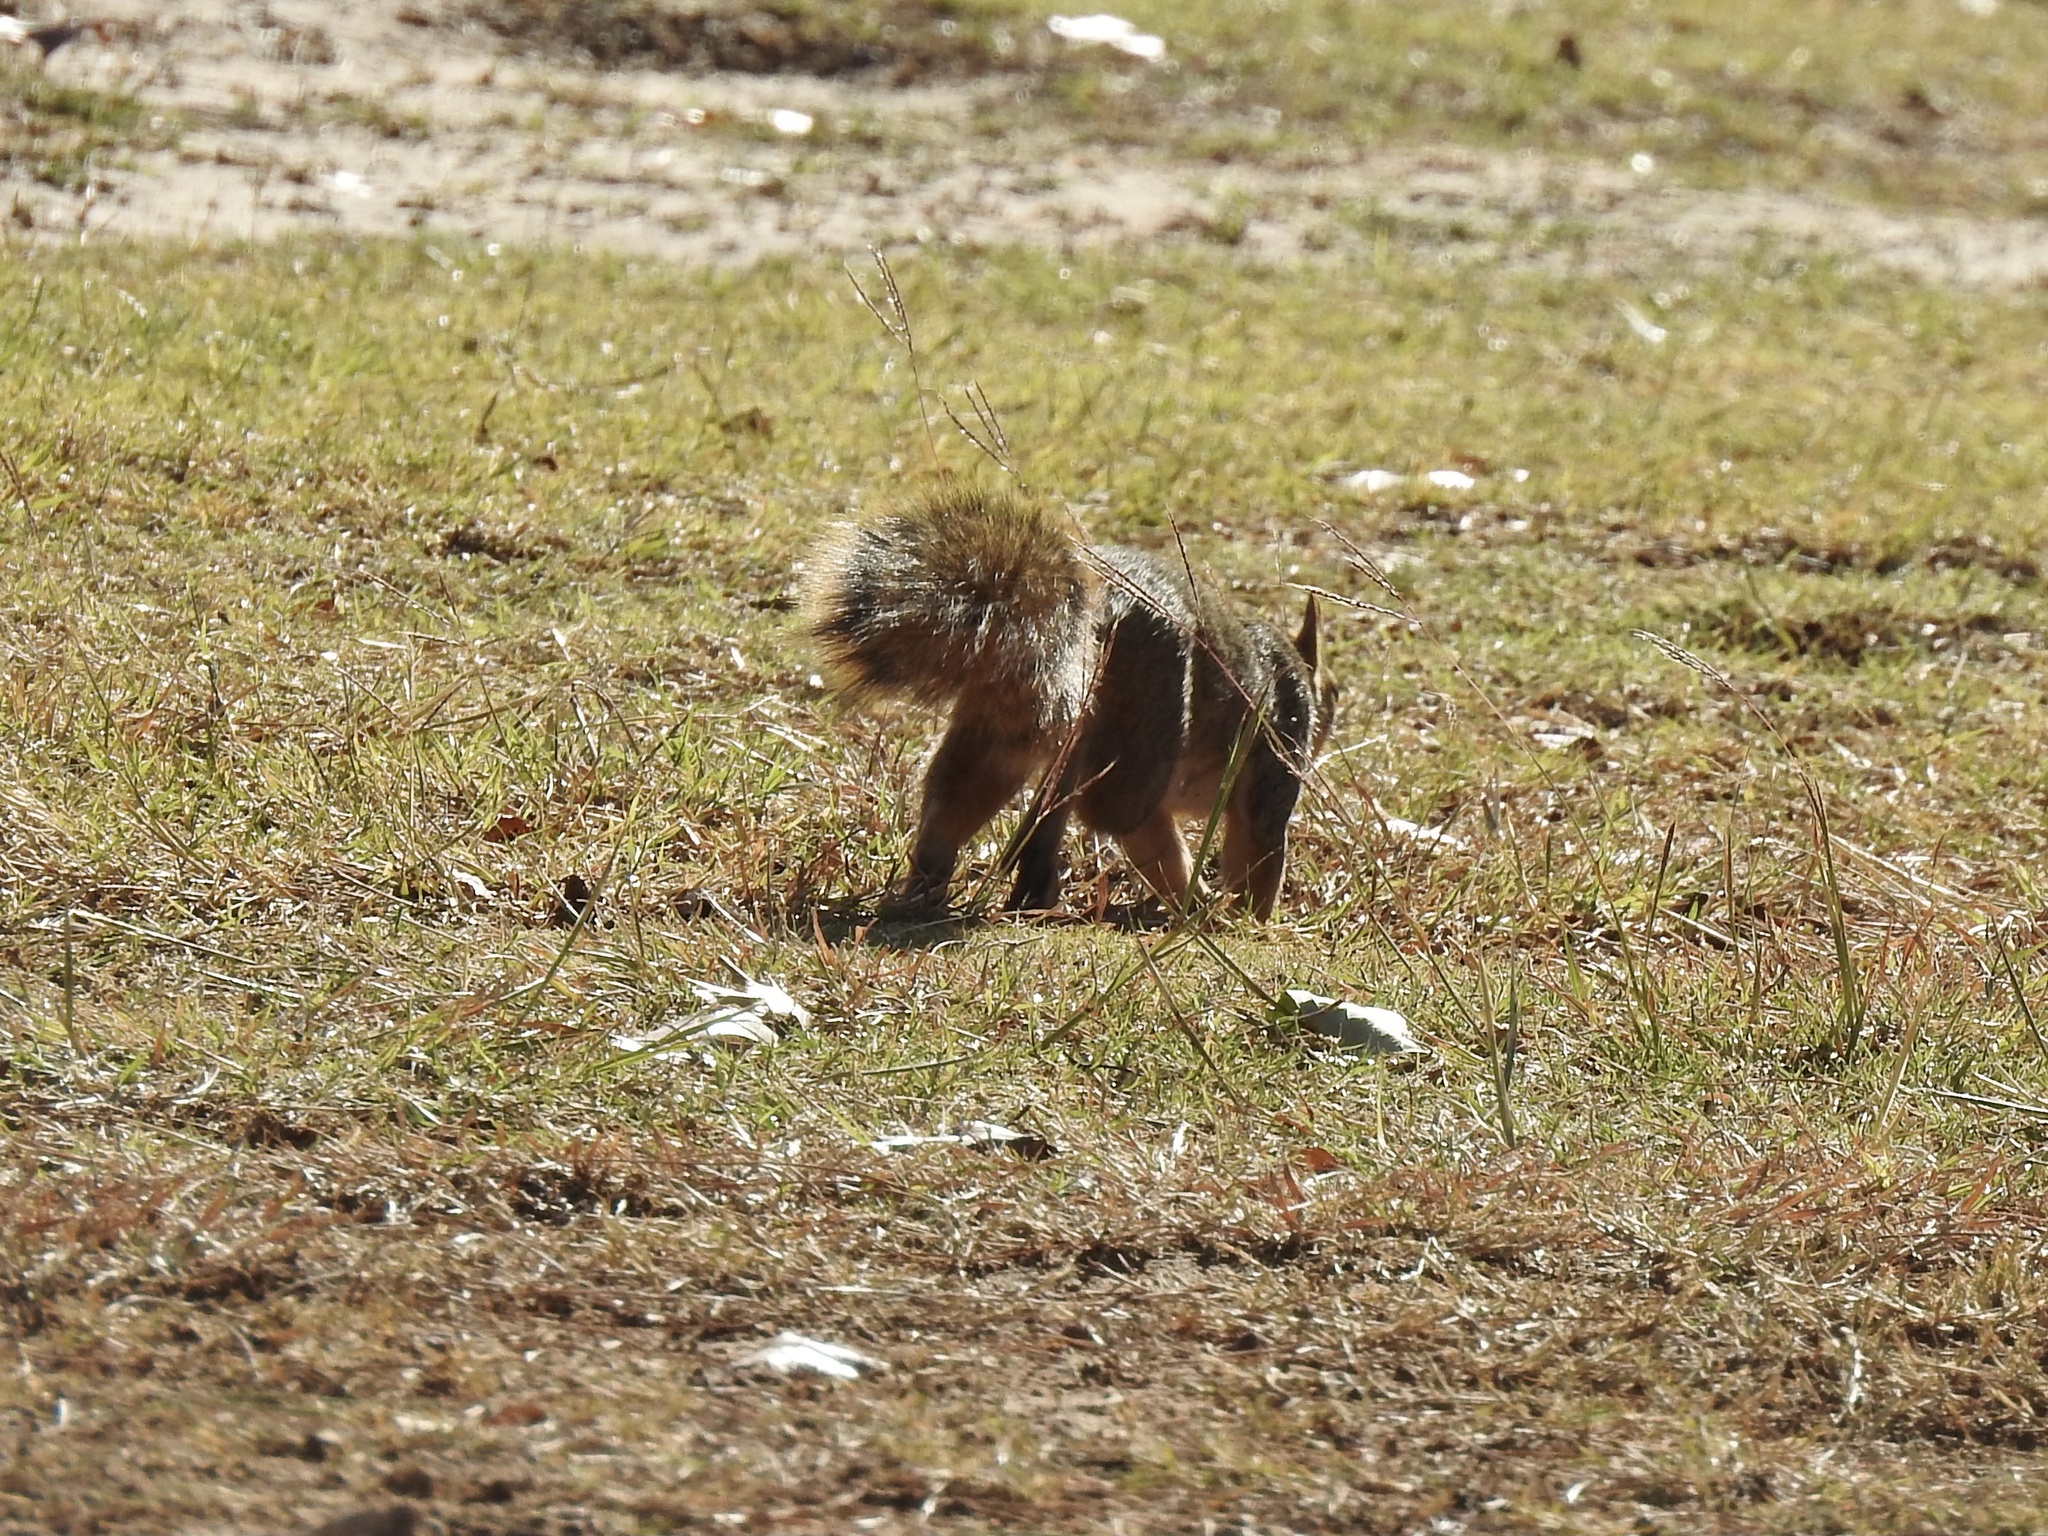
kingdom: Animalia
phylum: Chordata
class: Mammalia
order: Rodentia
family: Sciuridae
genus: Sciurus
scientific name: Sciurus niger
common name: Fox squirrel
